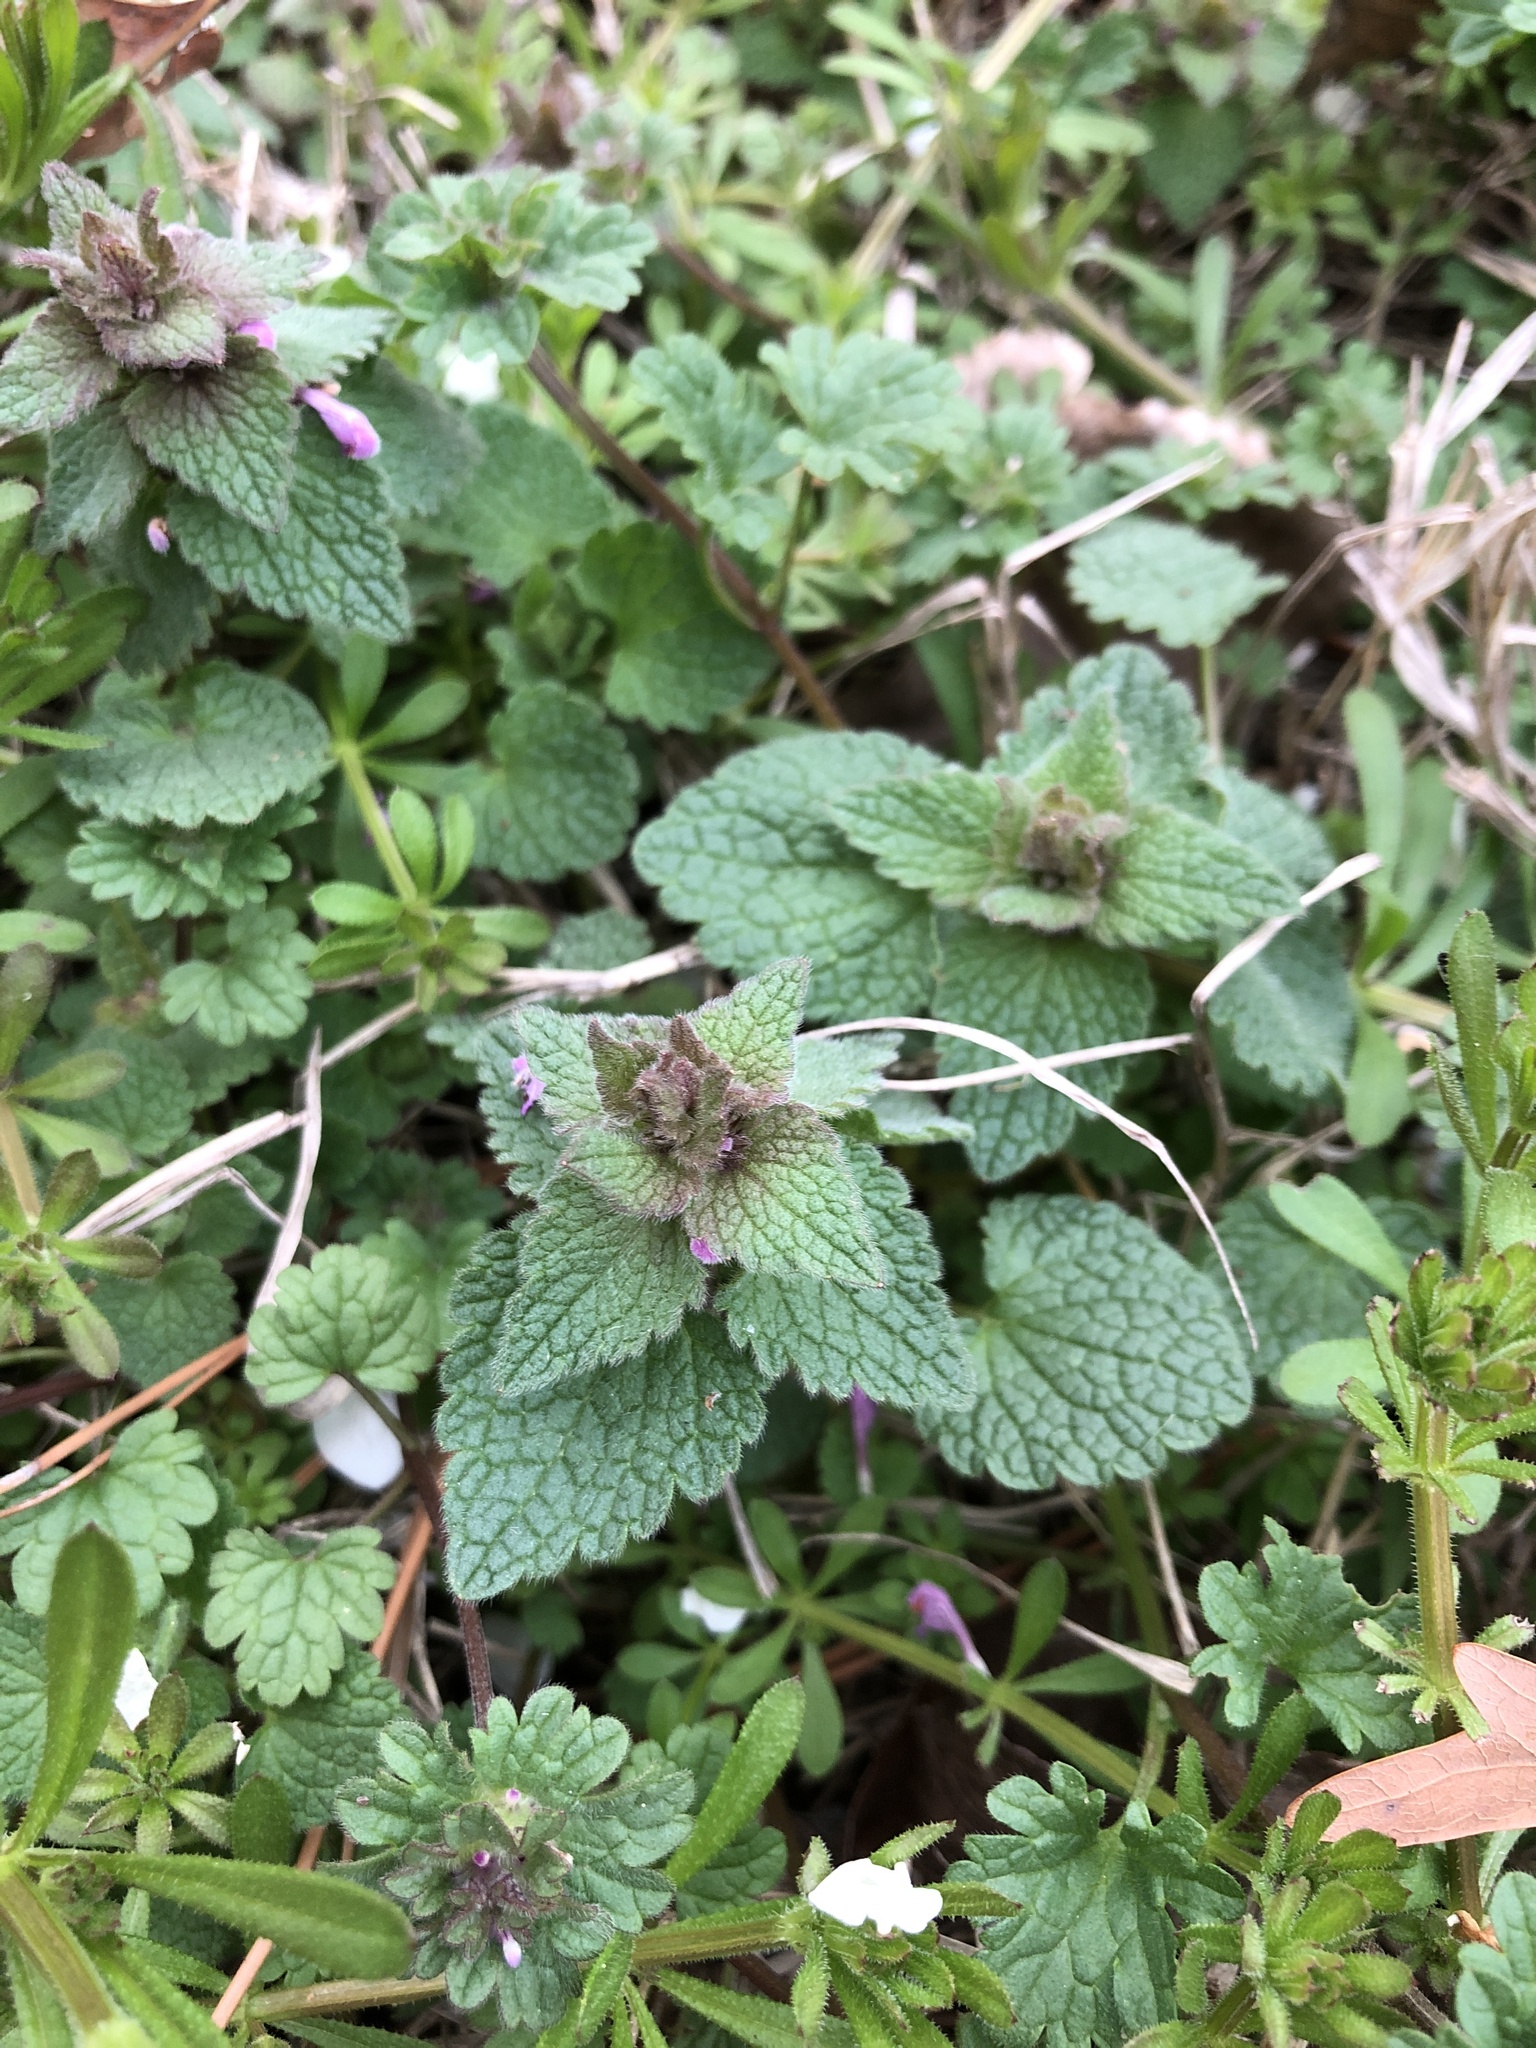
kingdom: Plantae
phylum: Tracheophyta
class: Magnoliopsida
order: Lamiales
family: Lamiaceae
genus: Lamium
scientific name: Lamium purpureum
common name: Red dead-nettle
